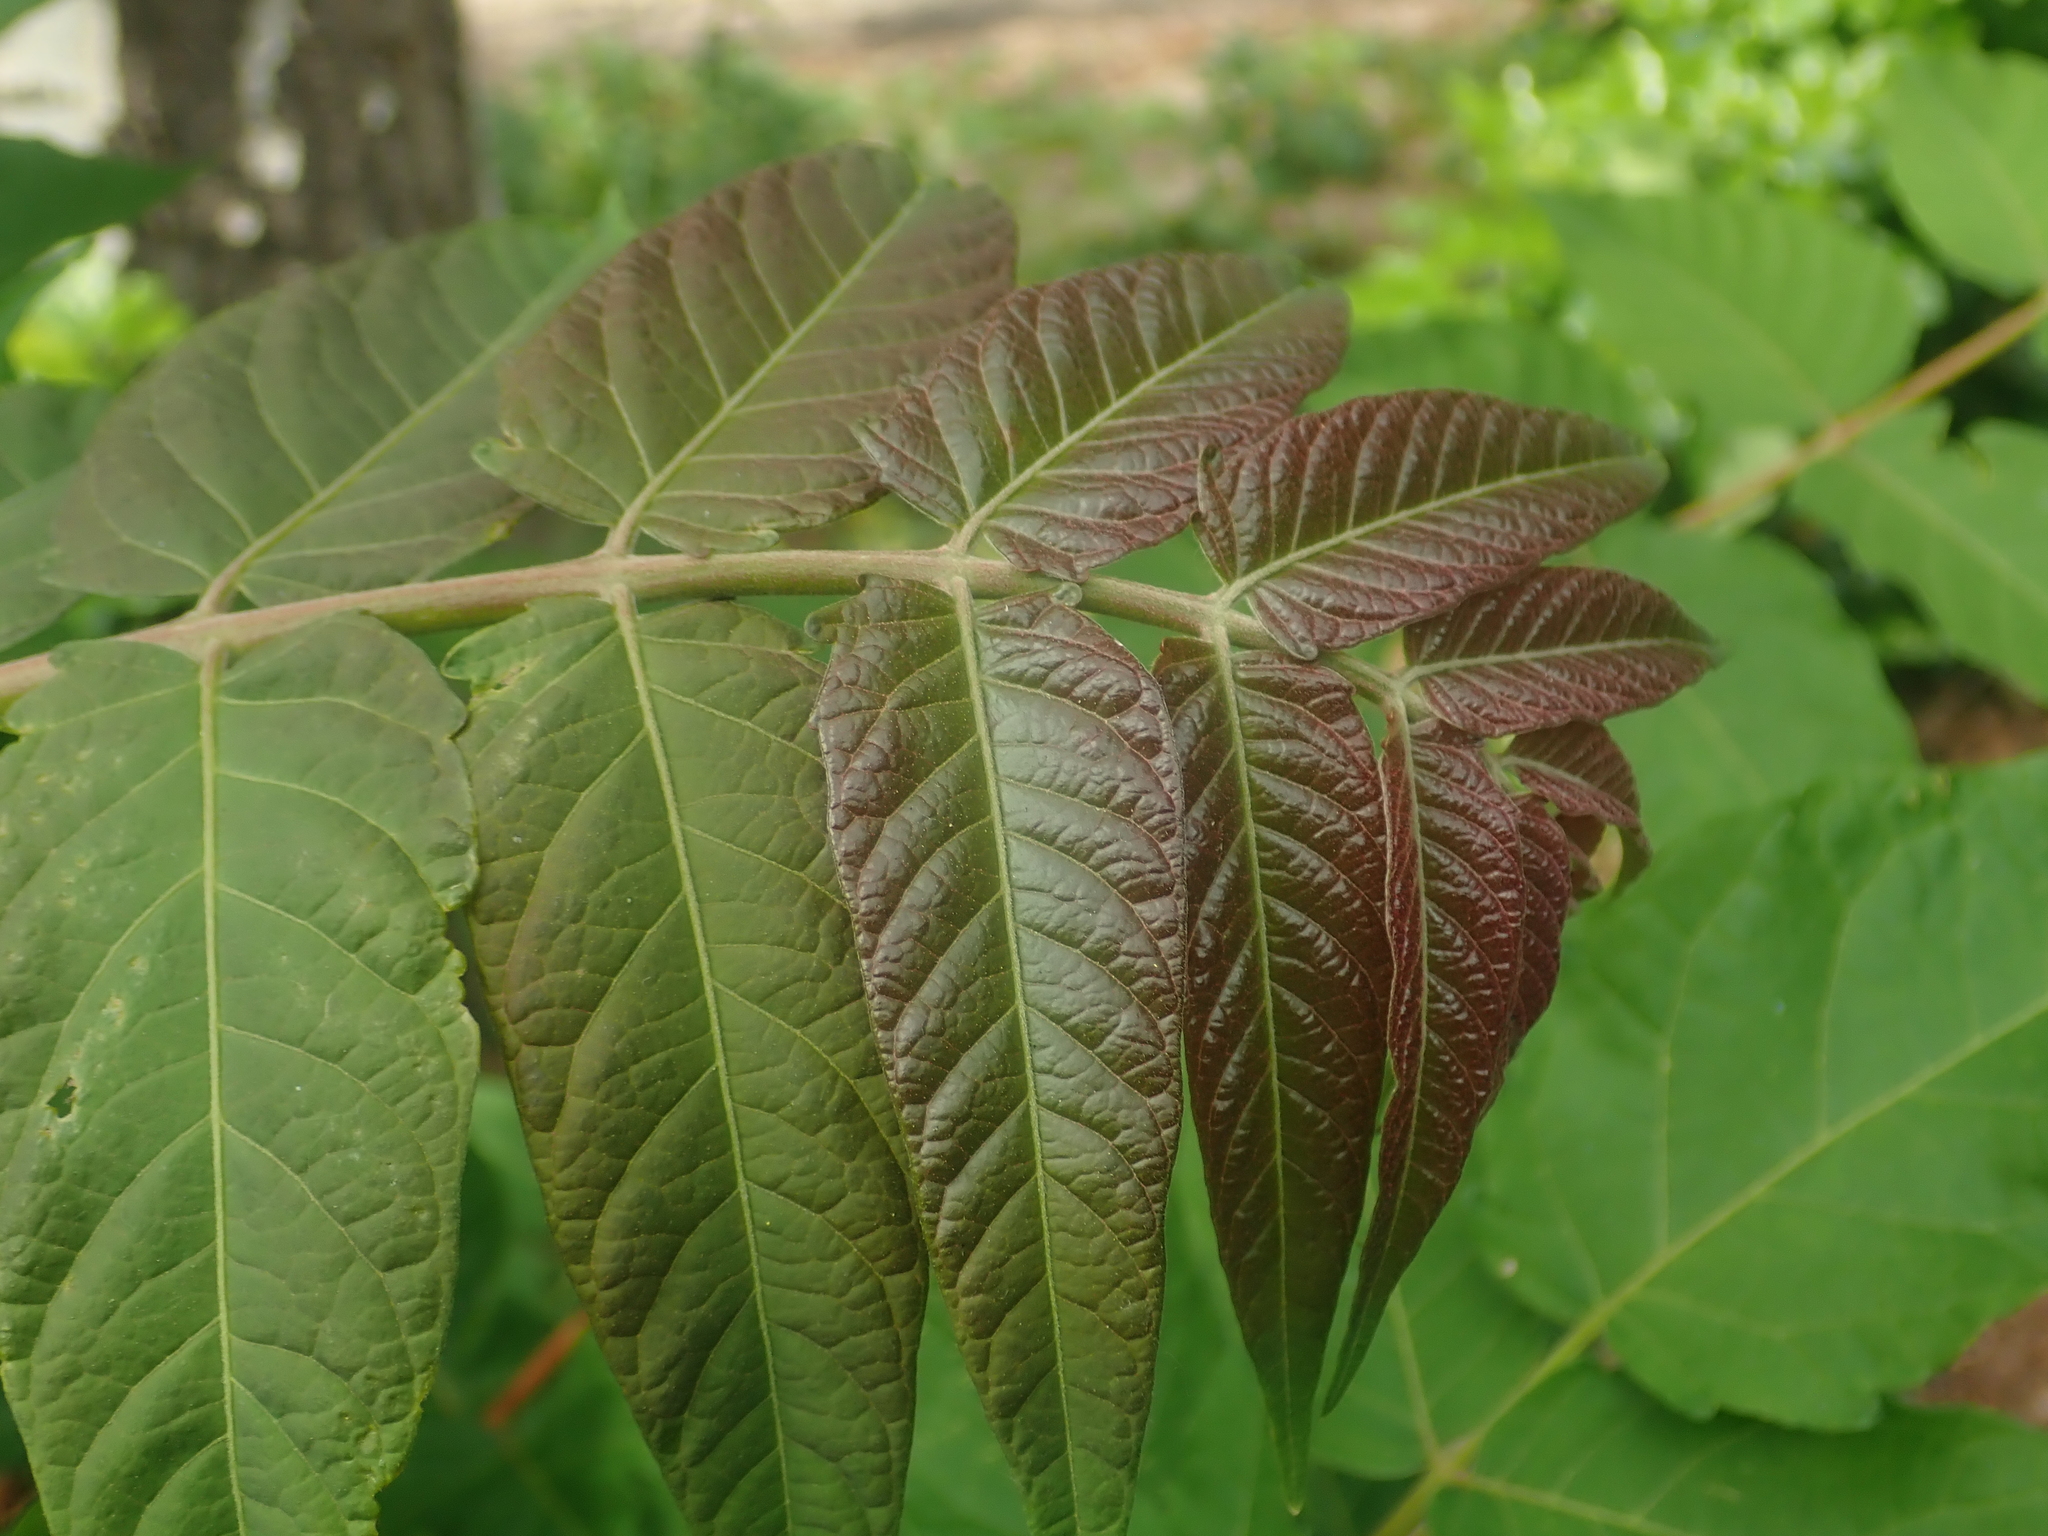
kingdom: Plantae
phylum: Tracheophyta
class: Magnoliopsida
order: Sapindales
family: Simaroubaceae
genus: Ailanthus
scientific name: Ailanthus altissima
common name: Tree-of-heaven
